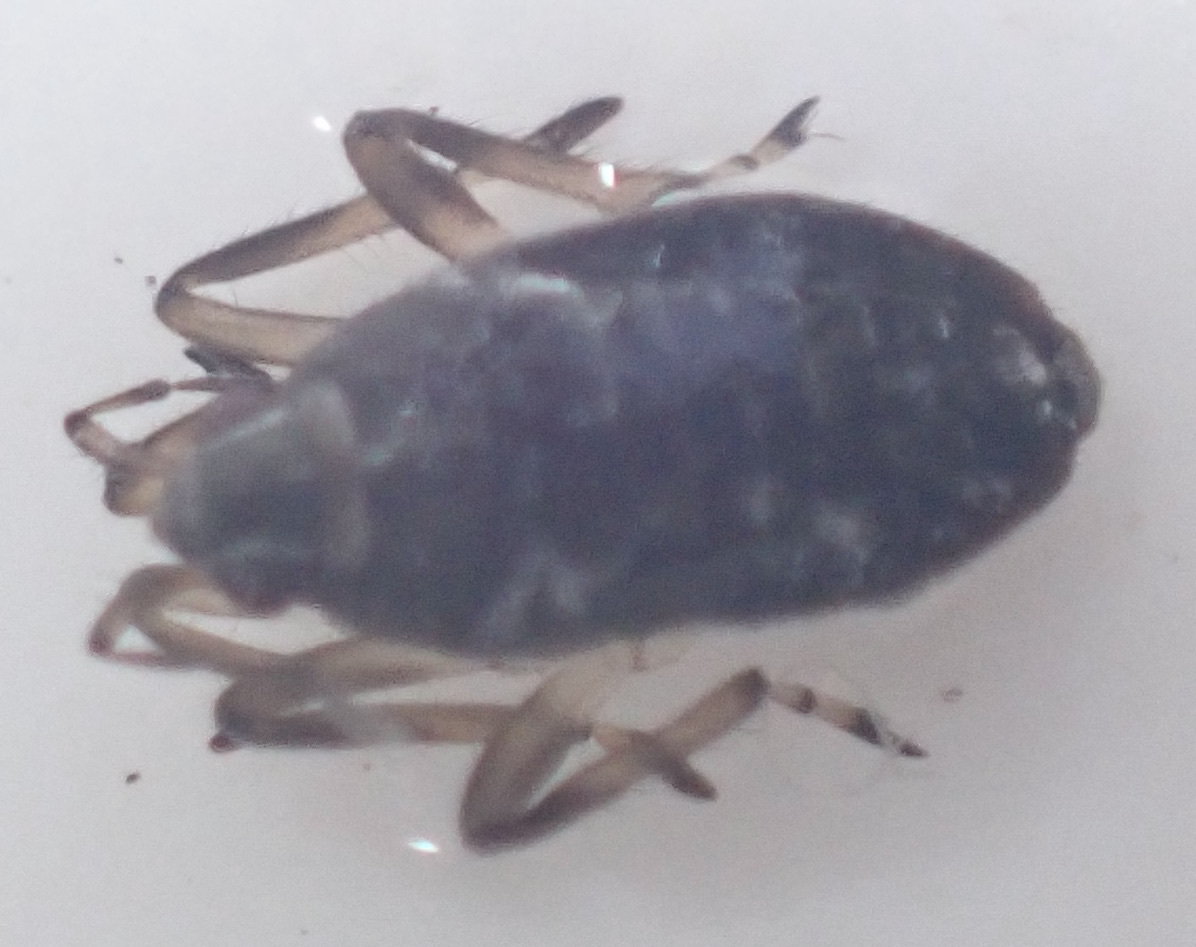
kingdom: Animalia
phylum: Arthropoda
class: Insecta
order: Hemiptera
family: Veliidae
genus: Microvelia
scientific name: Microvelia
